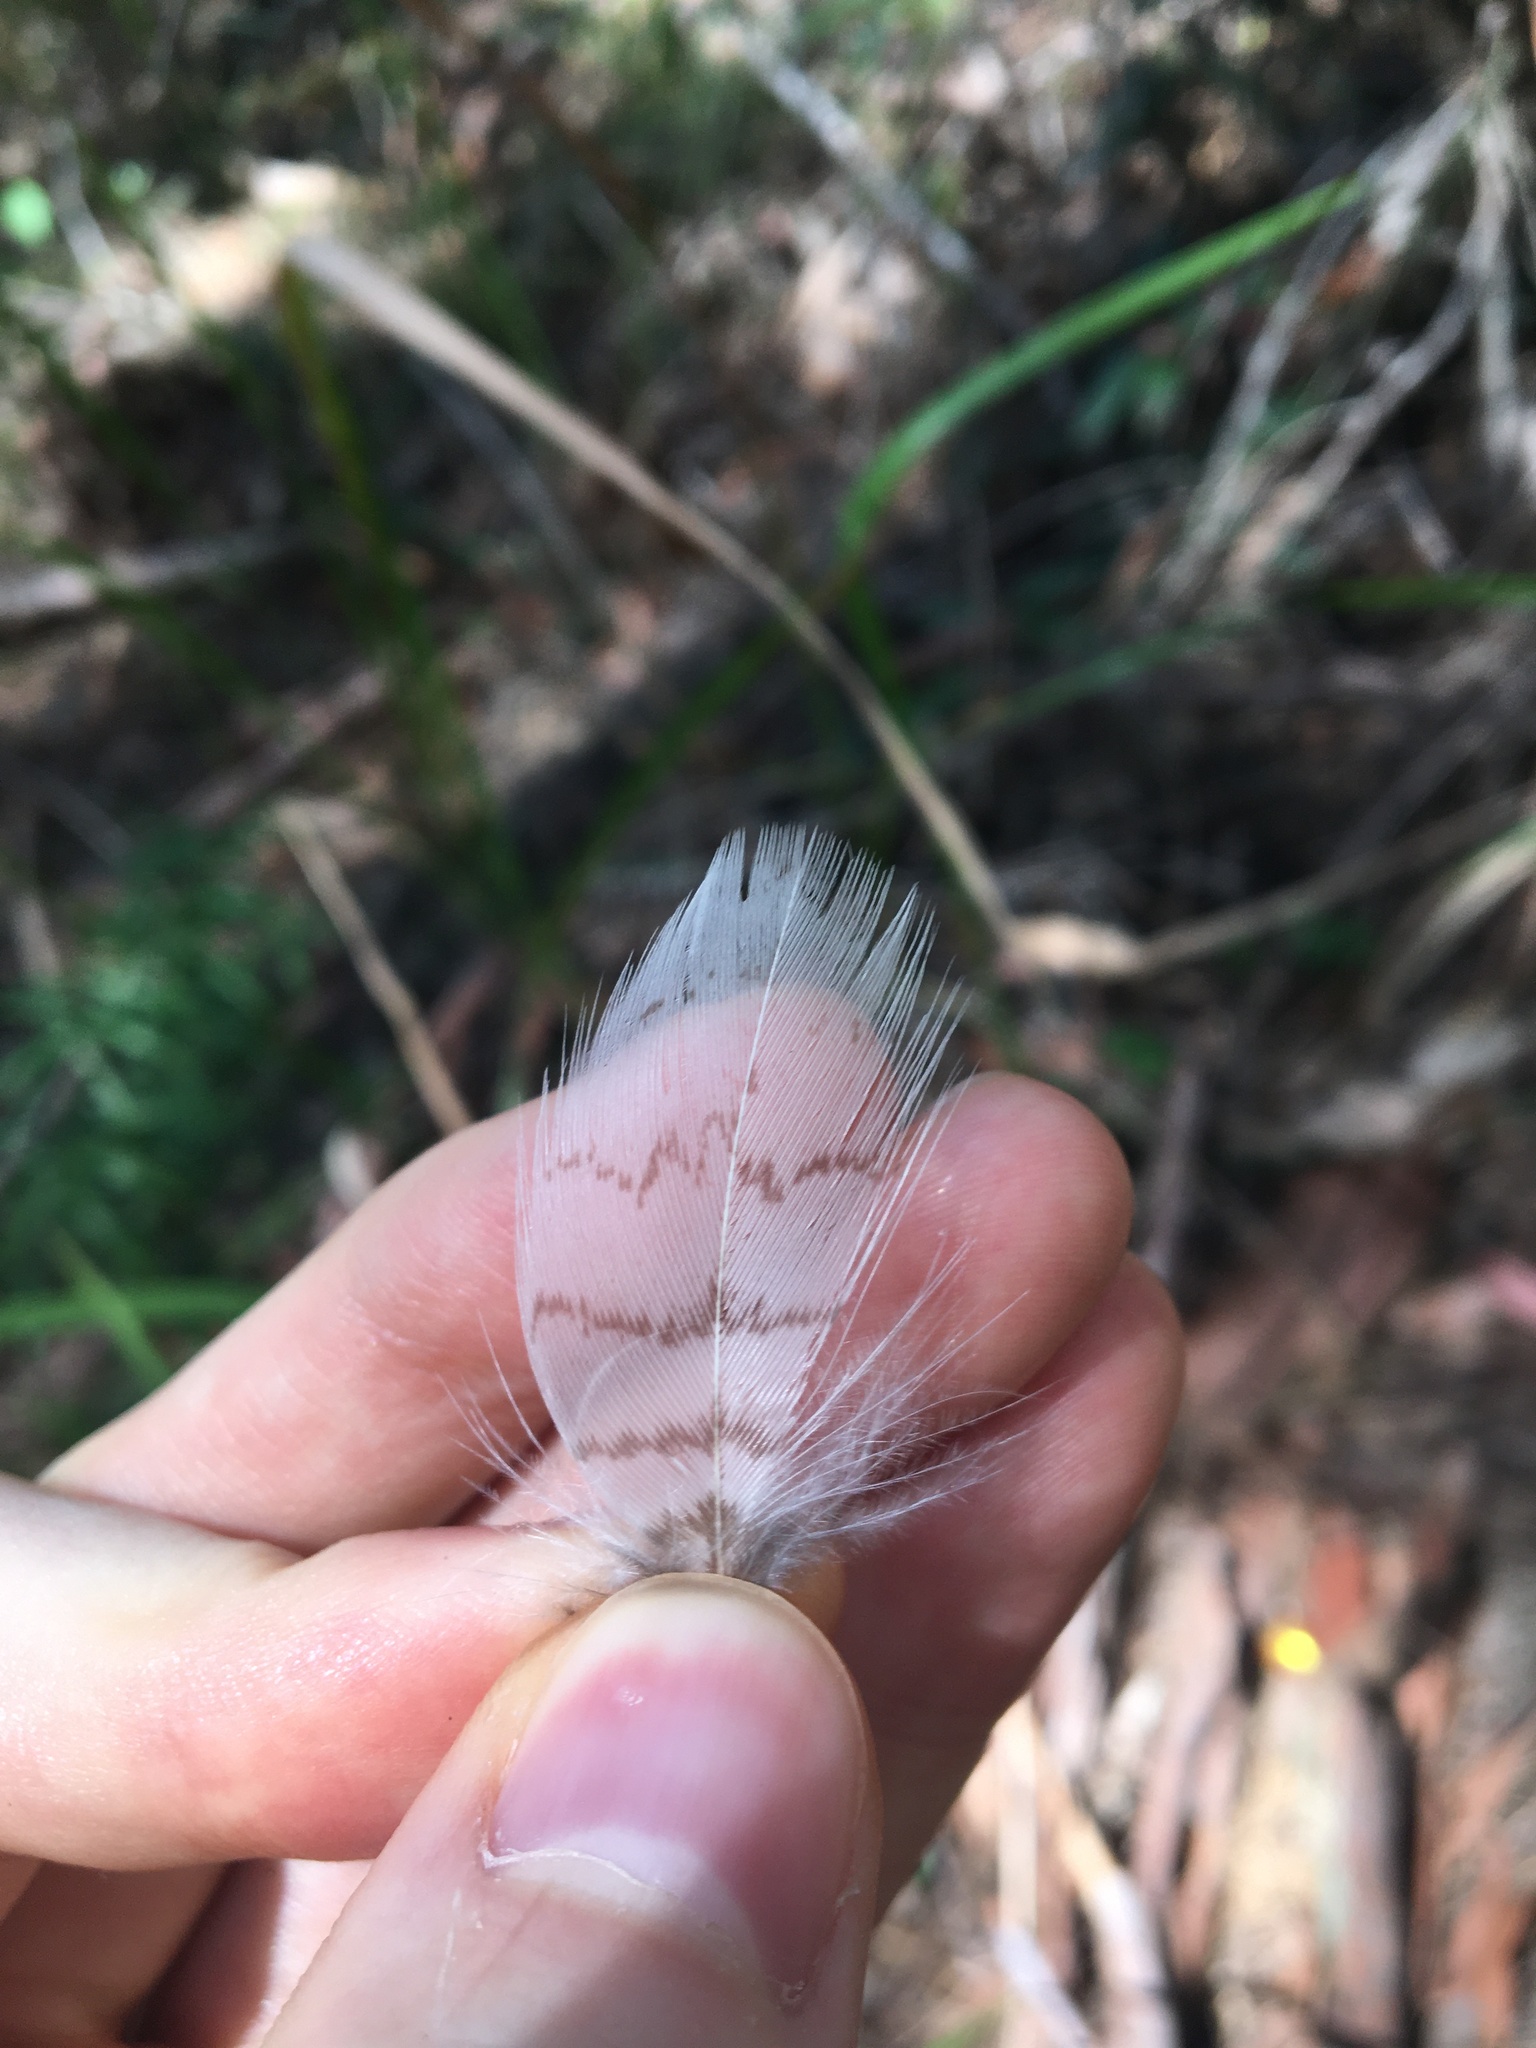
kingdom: Animalia
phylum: Chordata
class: Aves
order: Coraciiformes
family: Alcedinidae
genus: Dacelo
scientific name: Dacelo novaeguineae
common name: Laughing kookaburra
